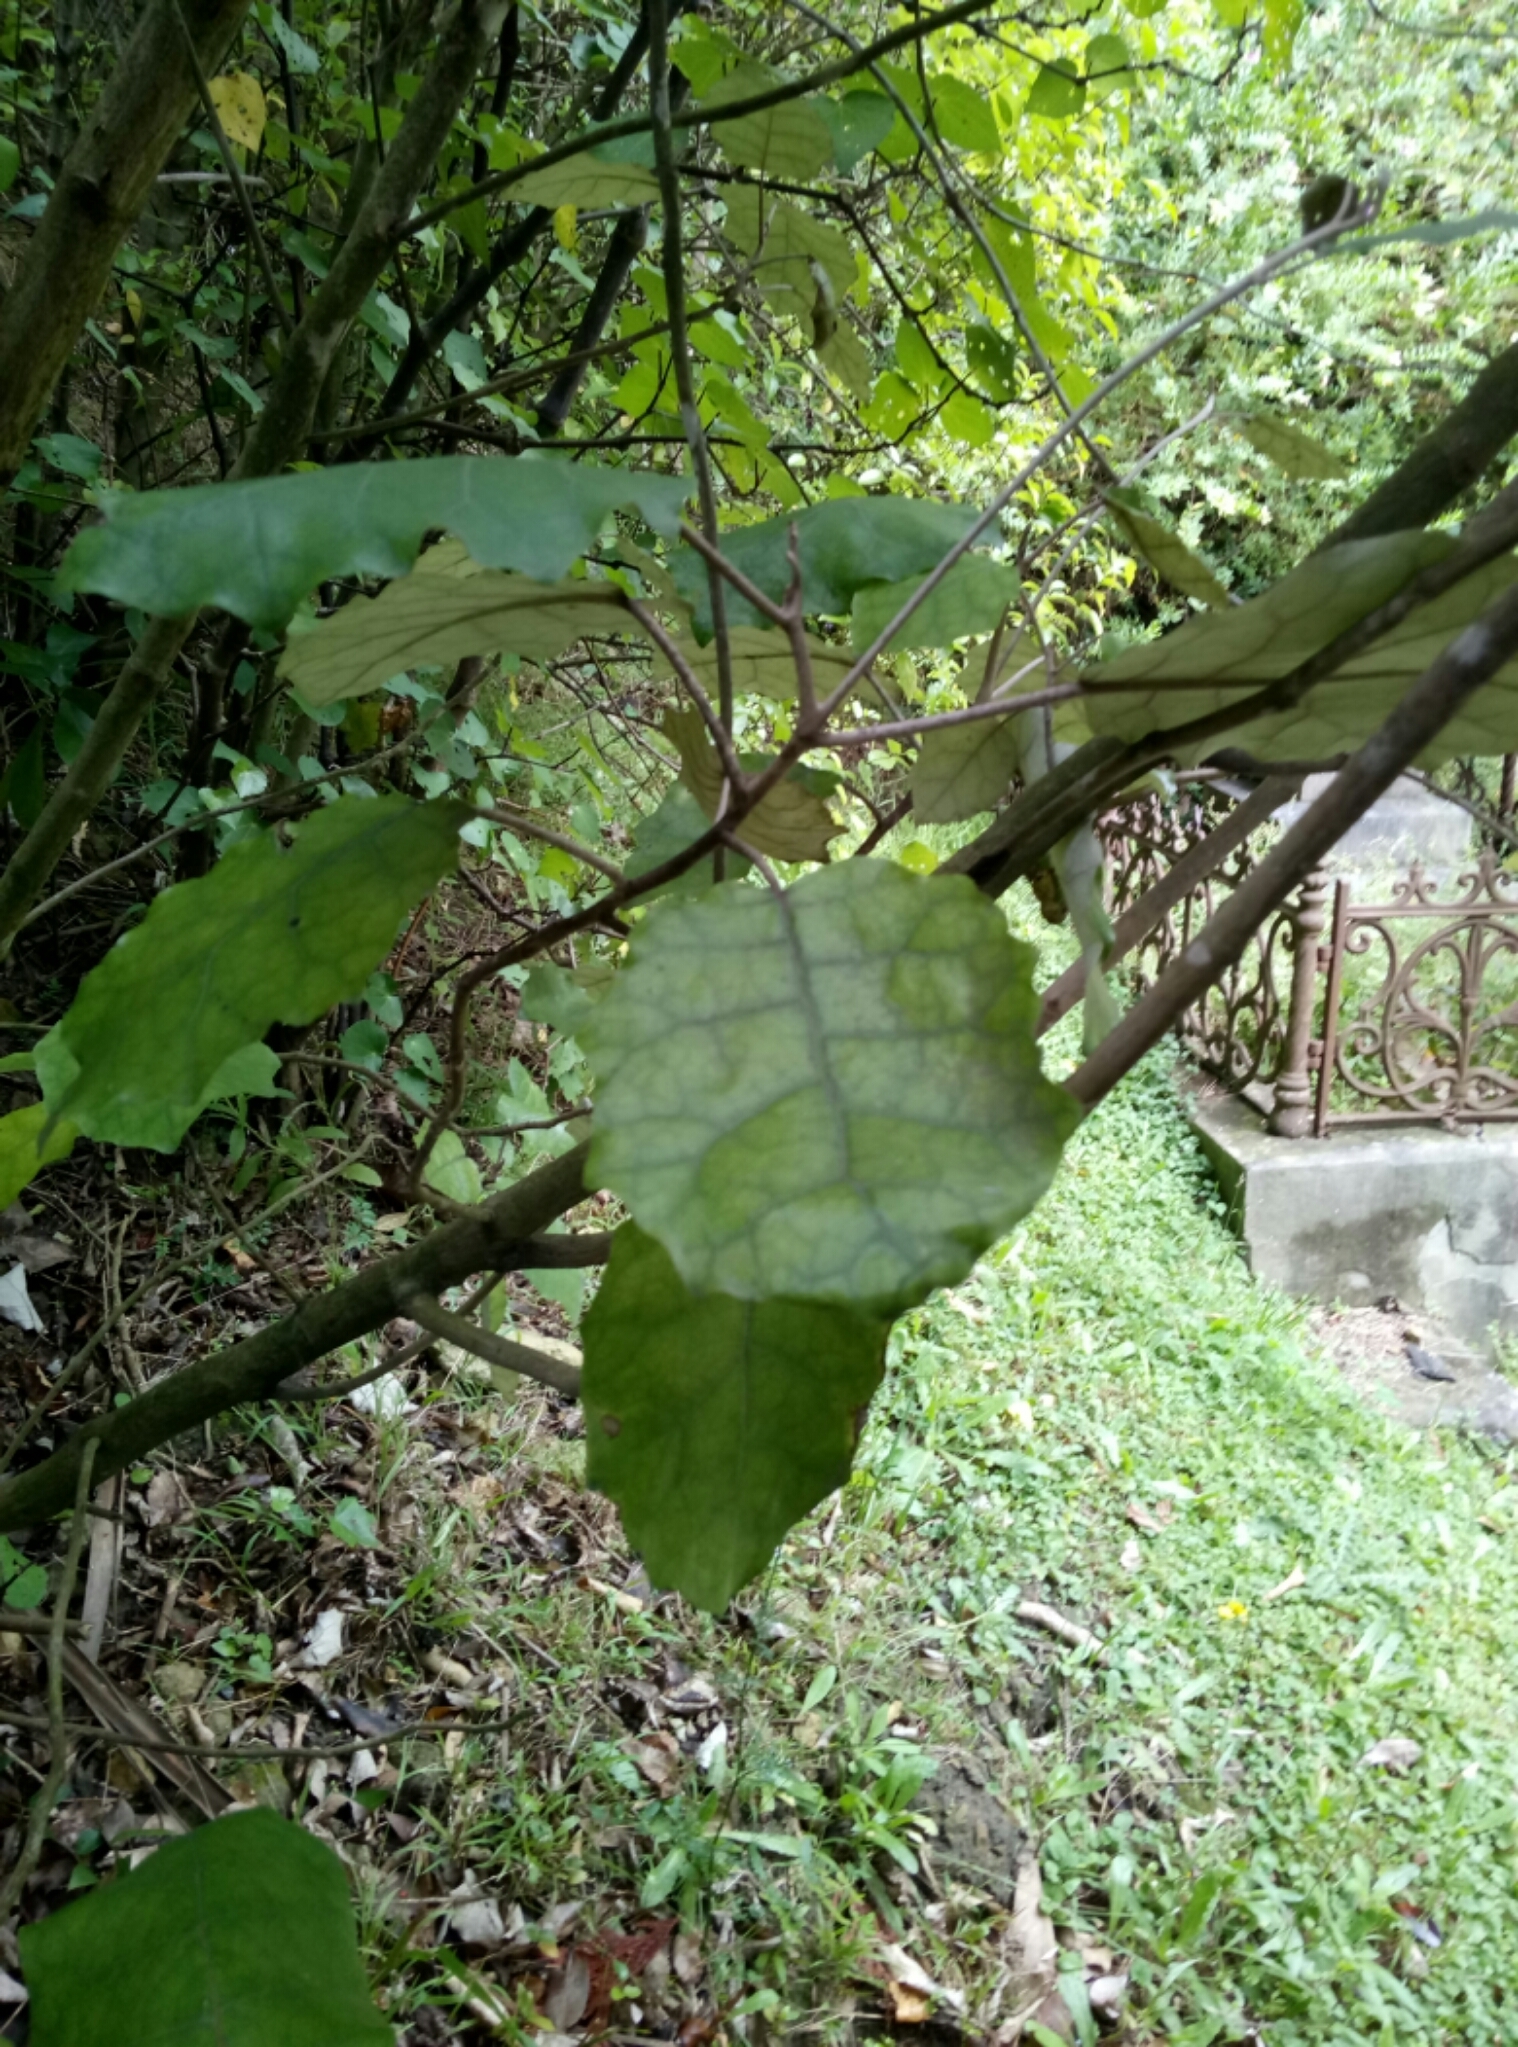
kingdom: Plantae
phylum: Tracheophyta
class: Magnoliopsida
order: Asterales
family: Asteraceae
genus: Brachyglottis
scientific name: Brachyglottis repanda
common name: Hedge ragwort
